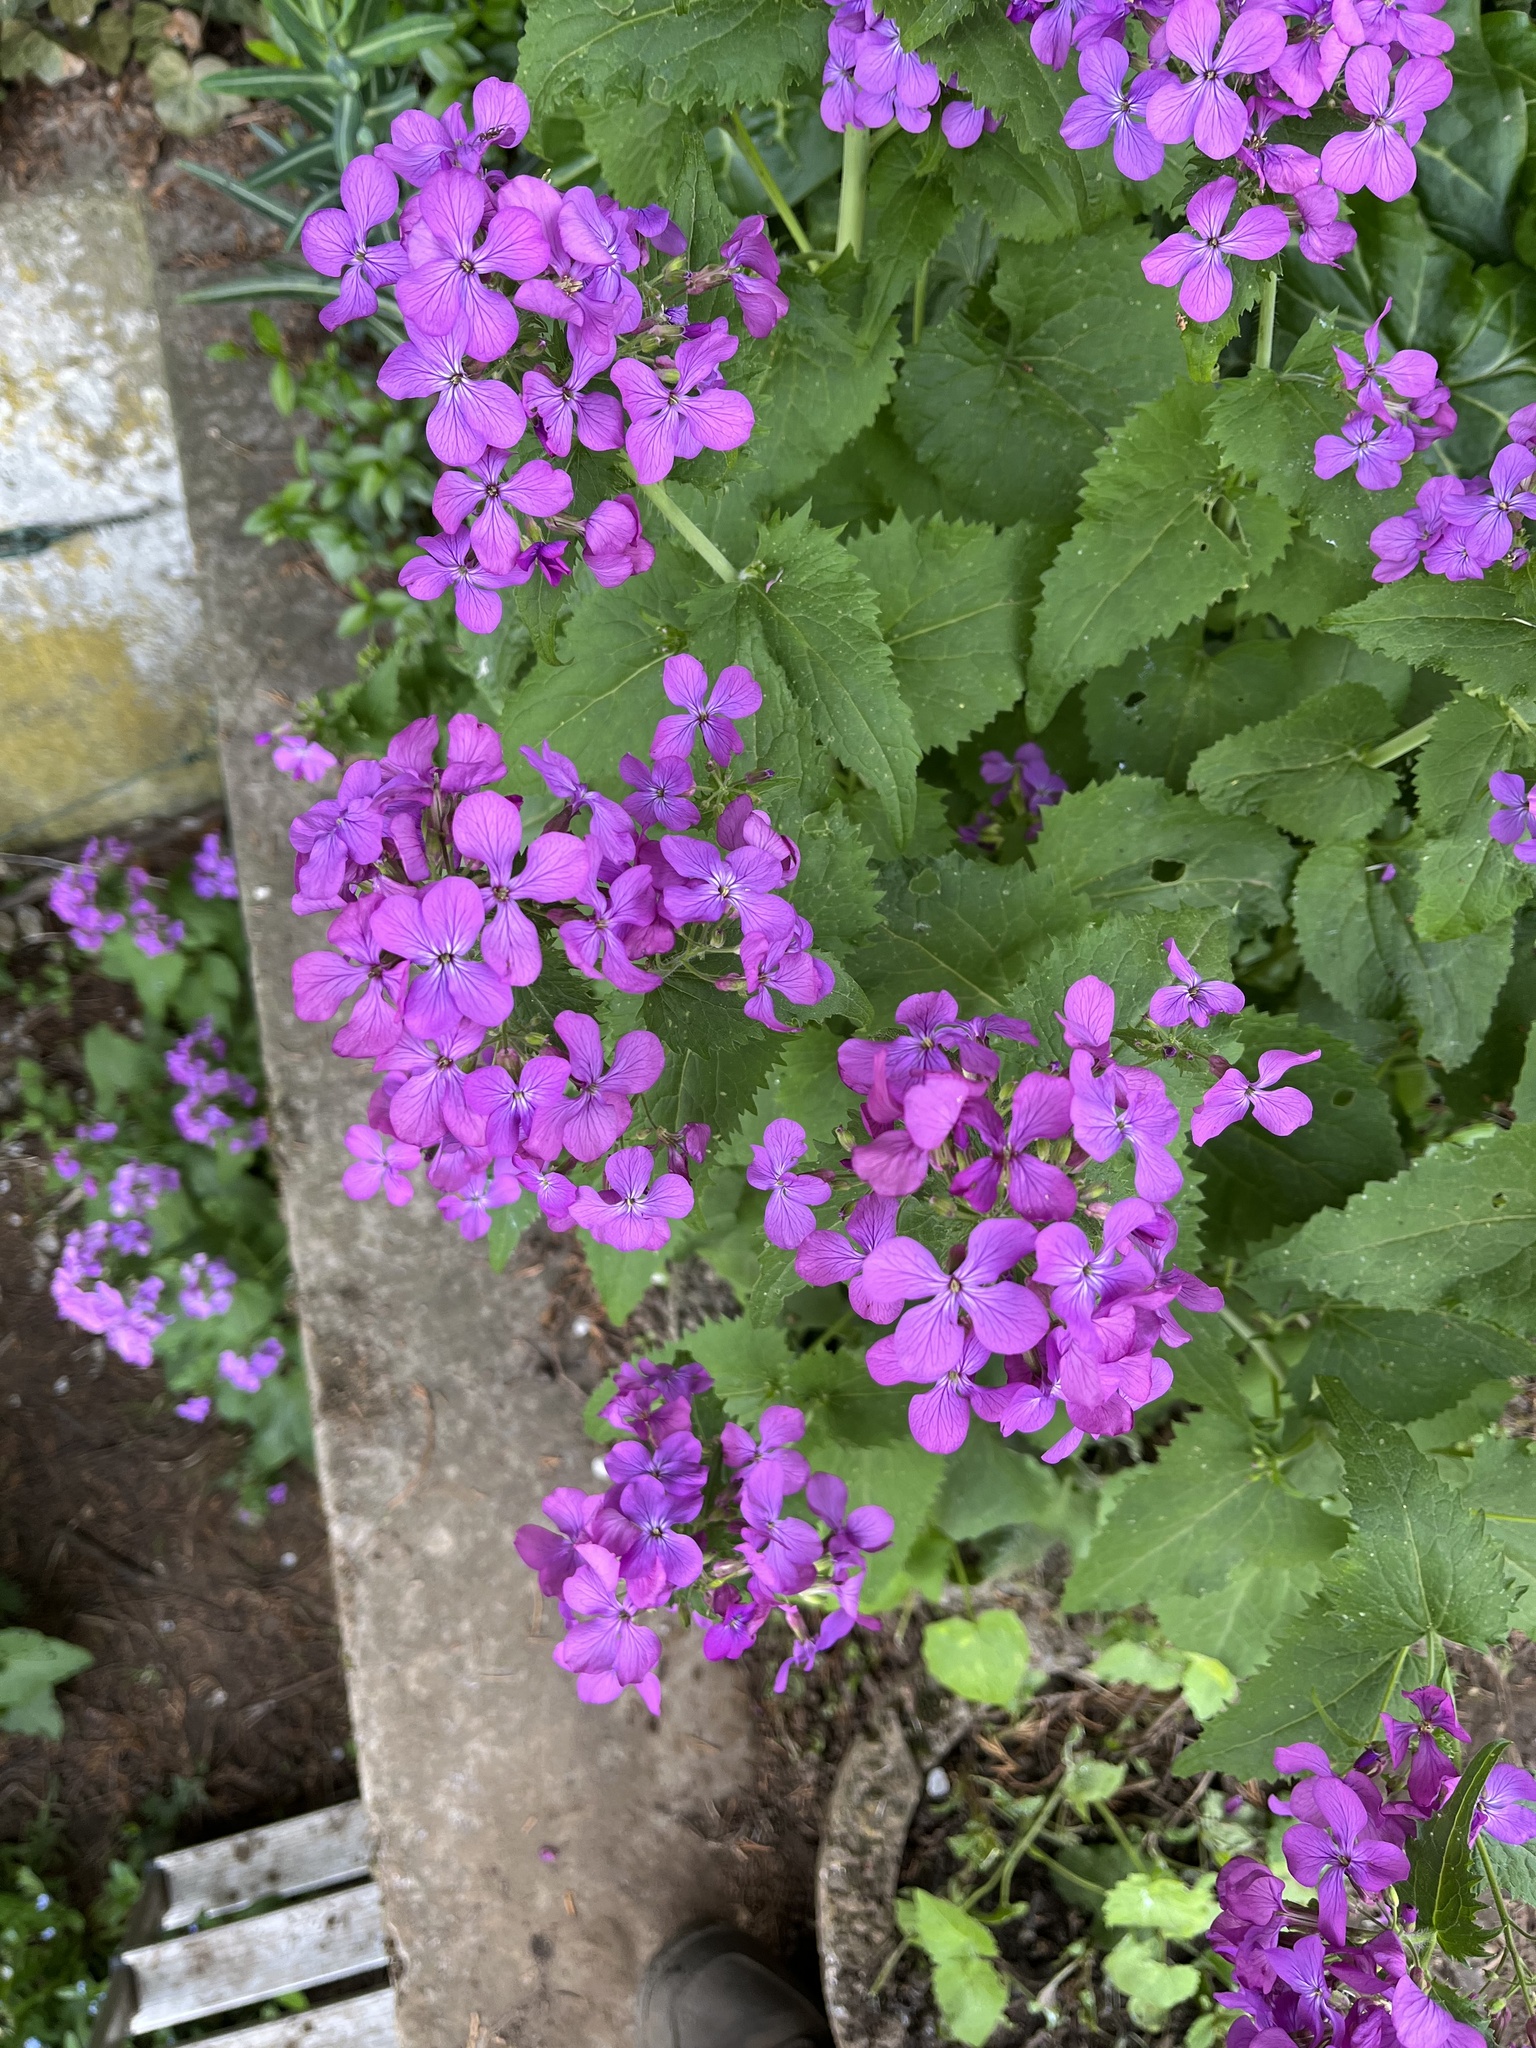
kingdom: Plantae
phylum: Tracheophyta
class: Magnoliopsida
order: Brassicales
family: Brassicaceae
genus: Lunaria
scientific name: Lunaria annua
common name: Honesty
